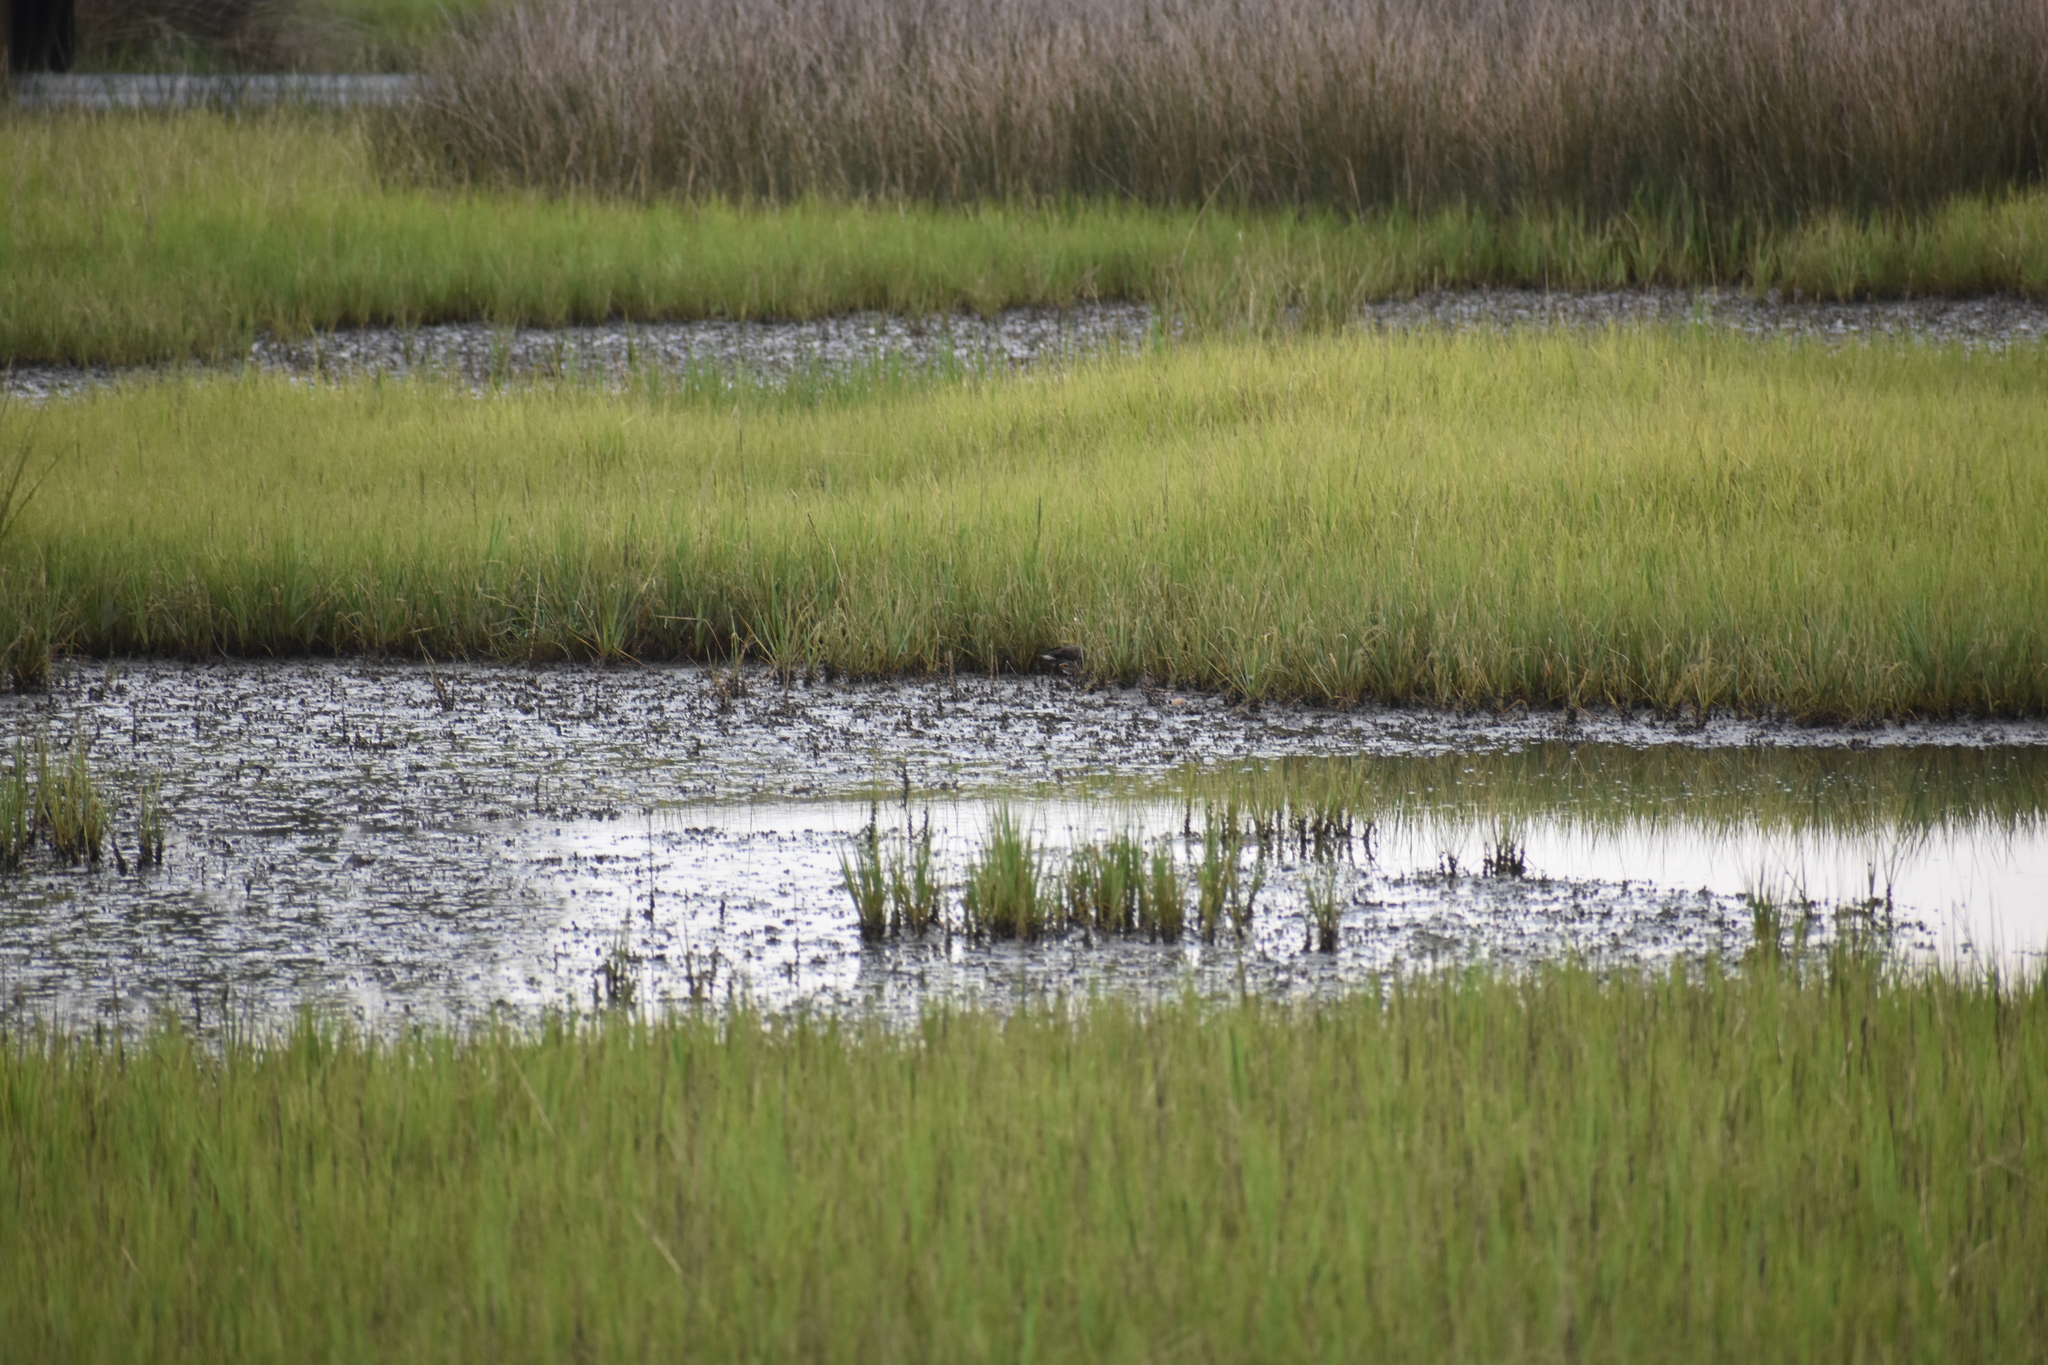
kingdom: Animalia
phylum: Chordata
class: Aves
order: Gruiformes
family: Rallidae
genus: Rallus
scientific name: Rallus crepitans
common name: Clapper rail
